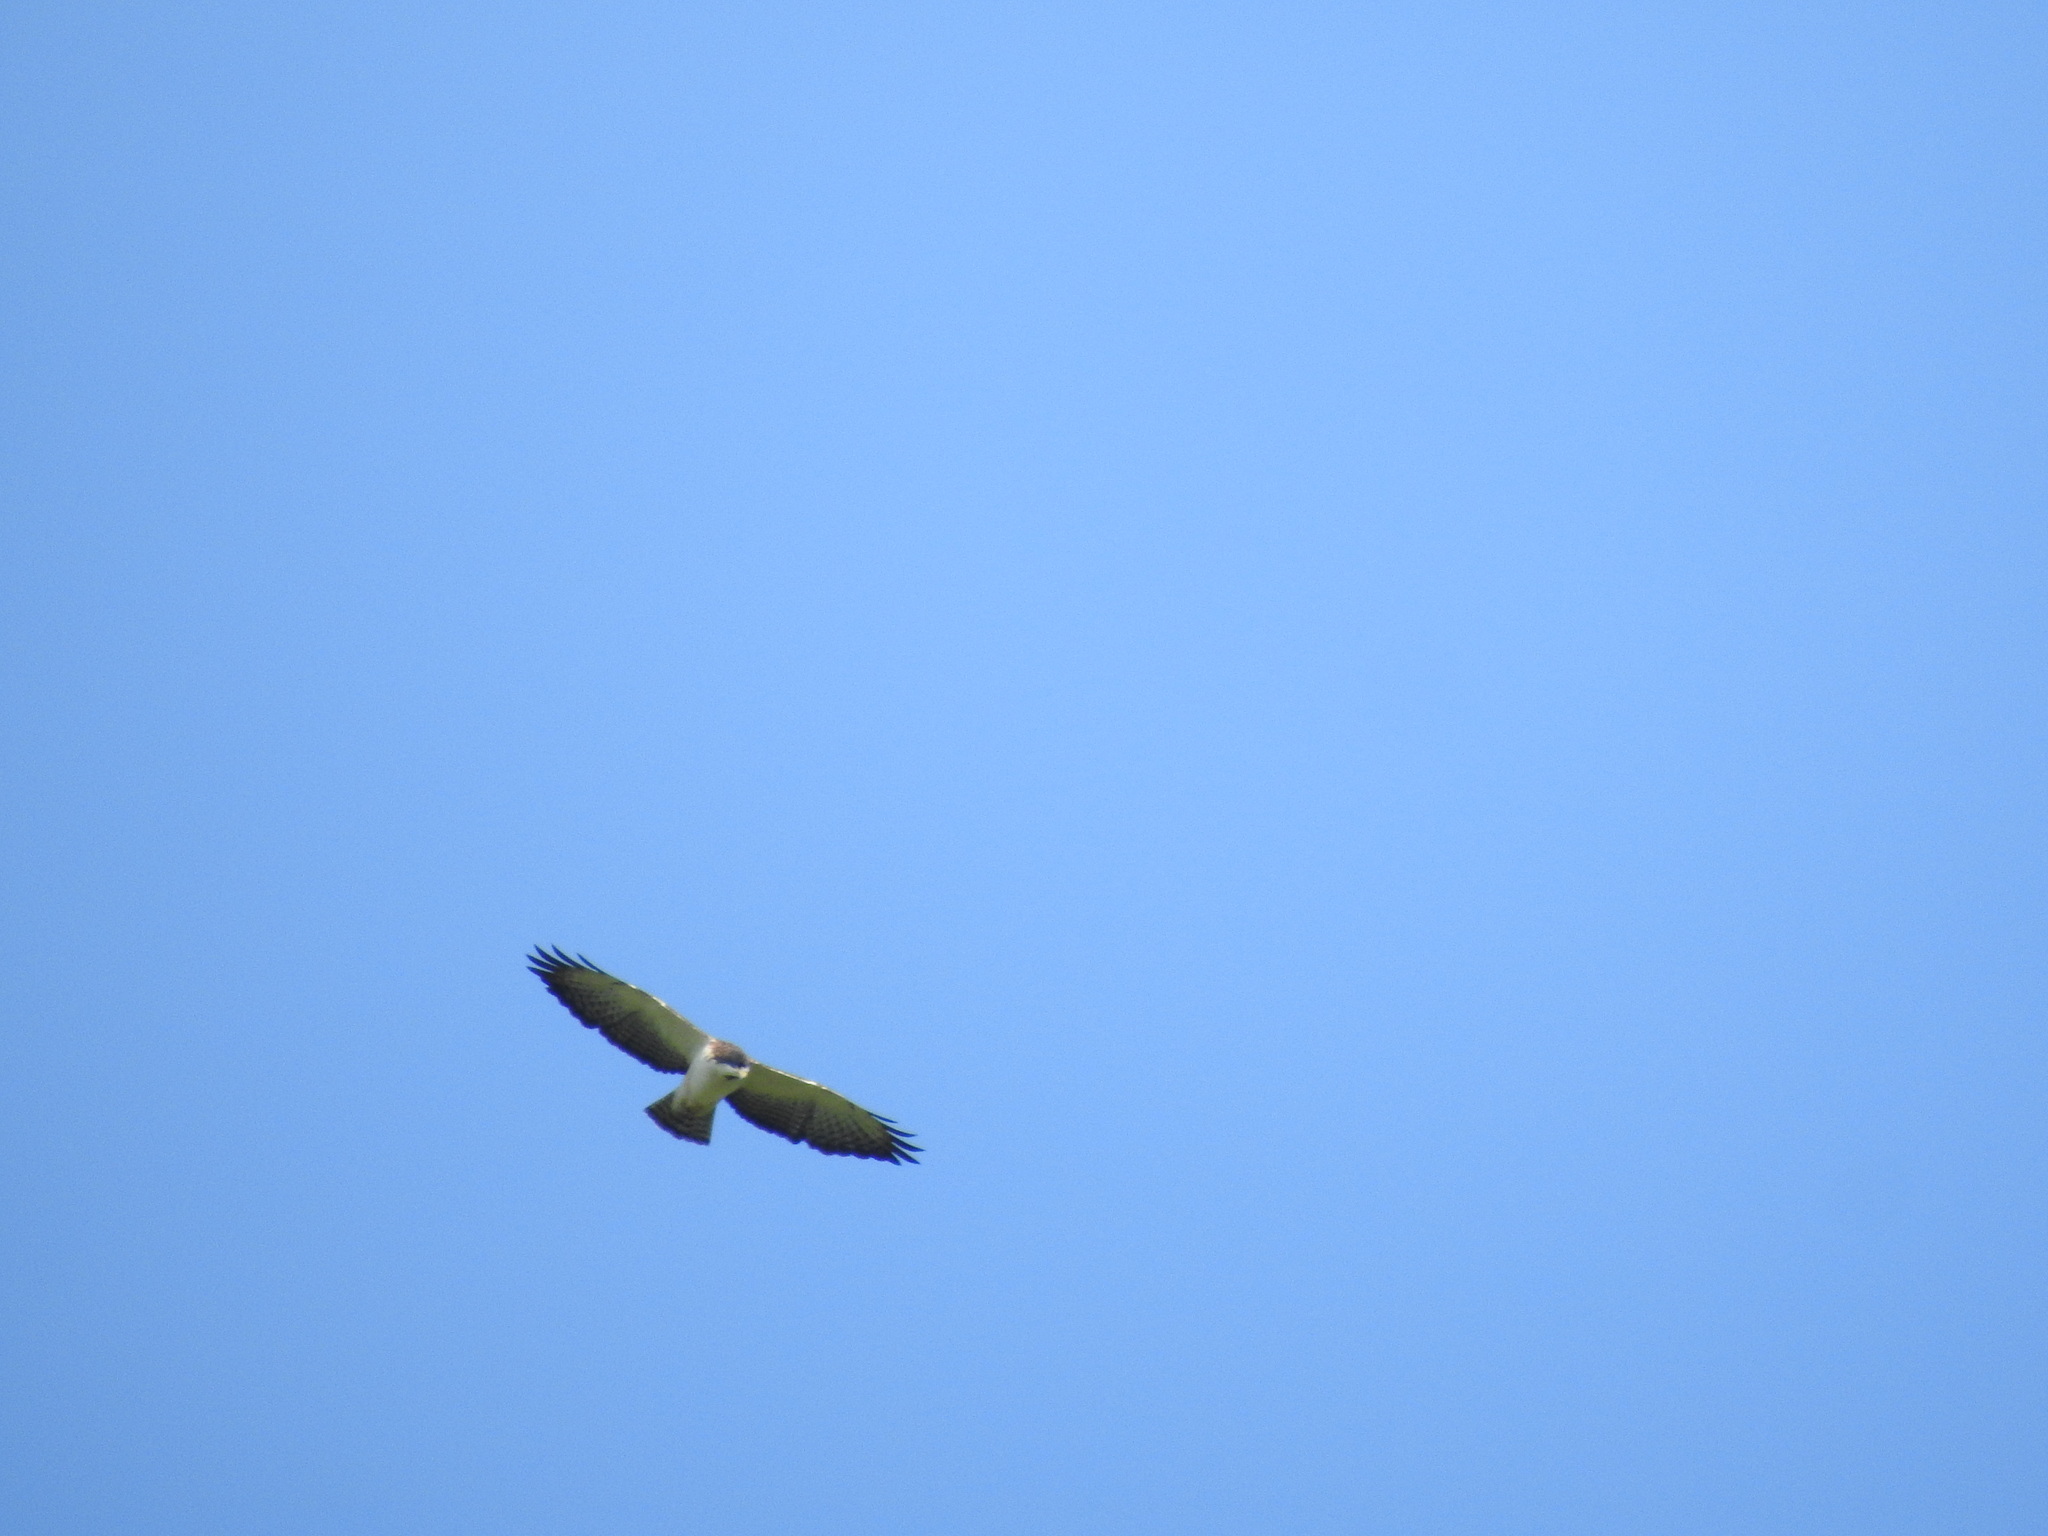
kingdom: Animalia
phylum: Chordata
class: Aves
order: Accipitriformes
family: Accipitridae
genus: Buteo
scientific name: Buteo brachyurus
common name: Short-tailed hawk
